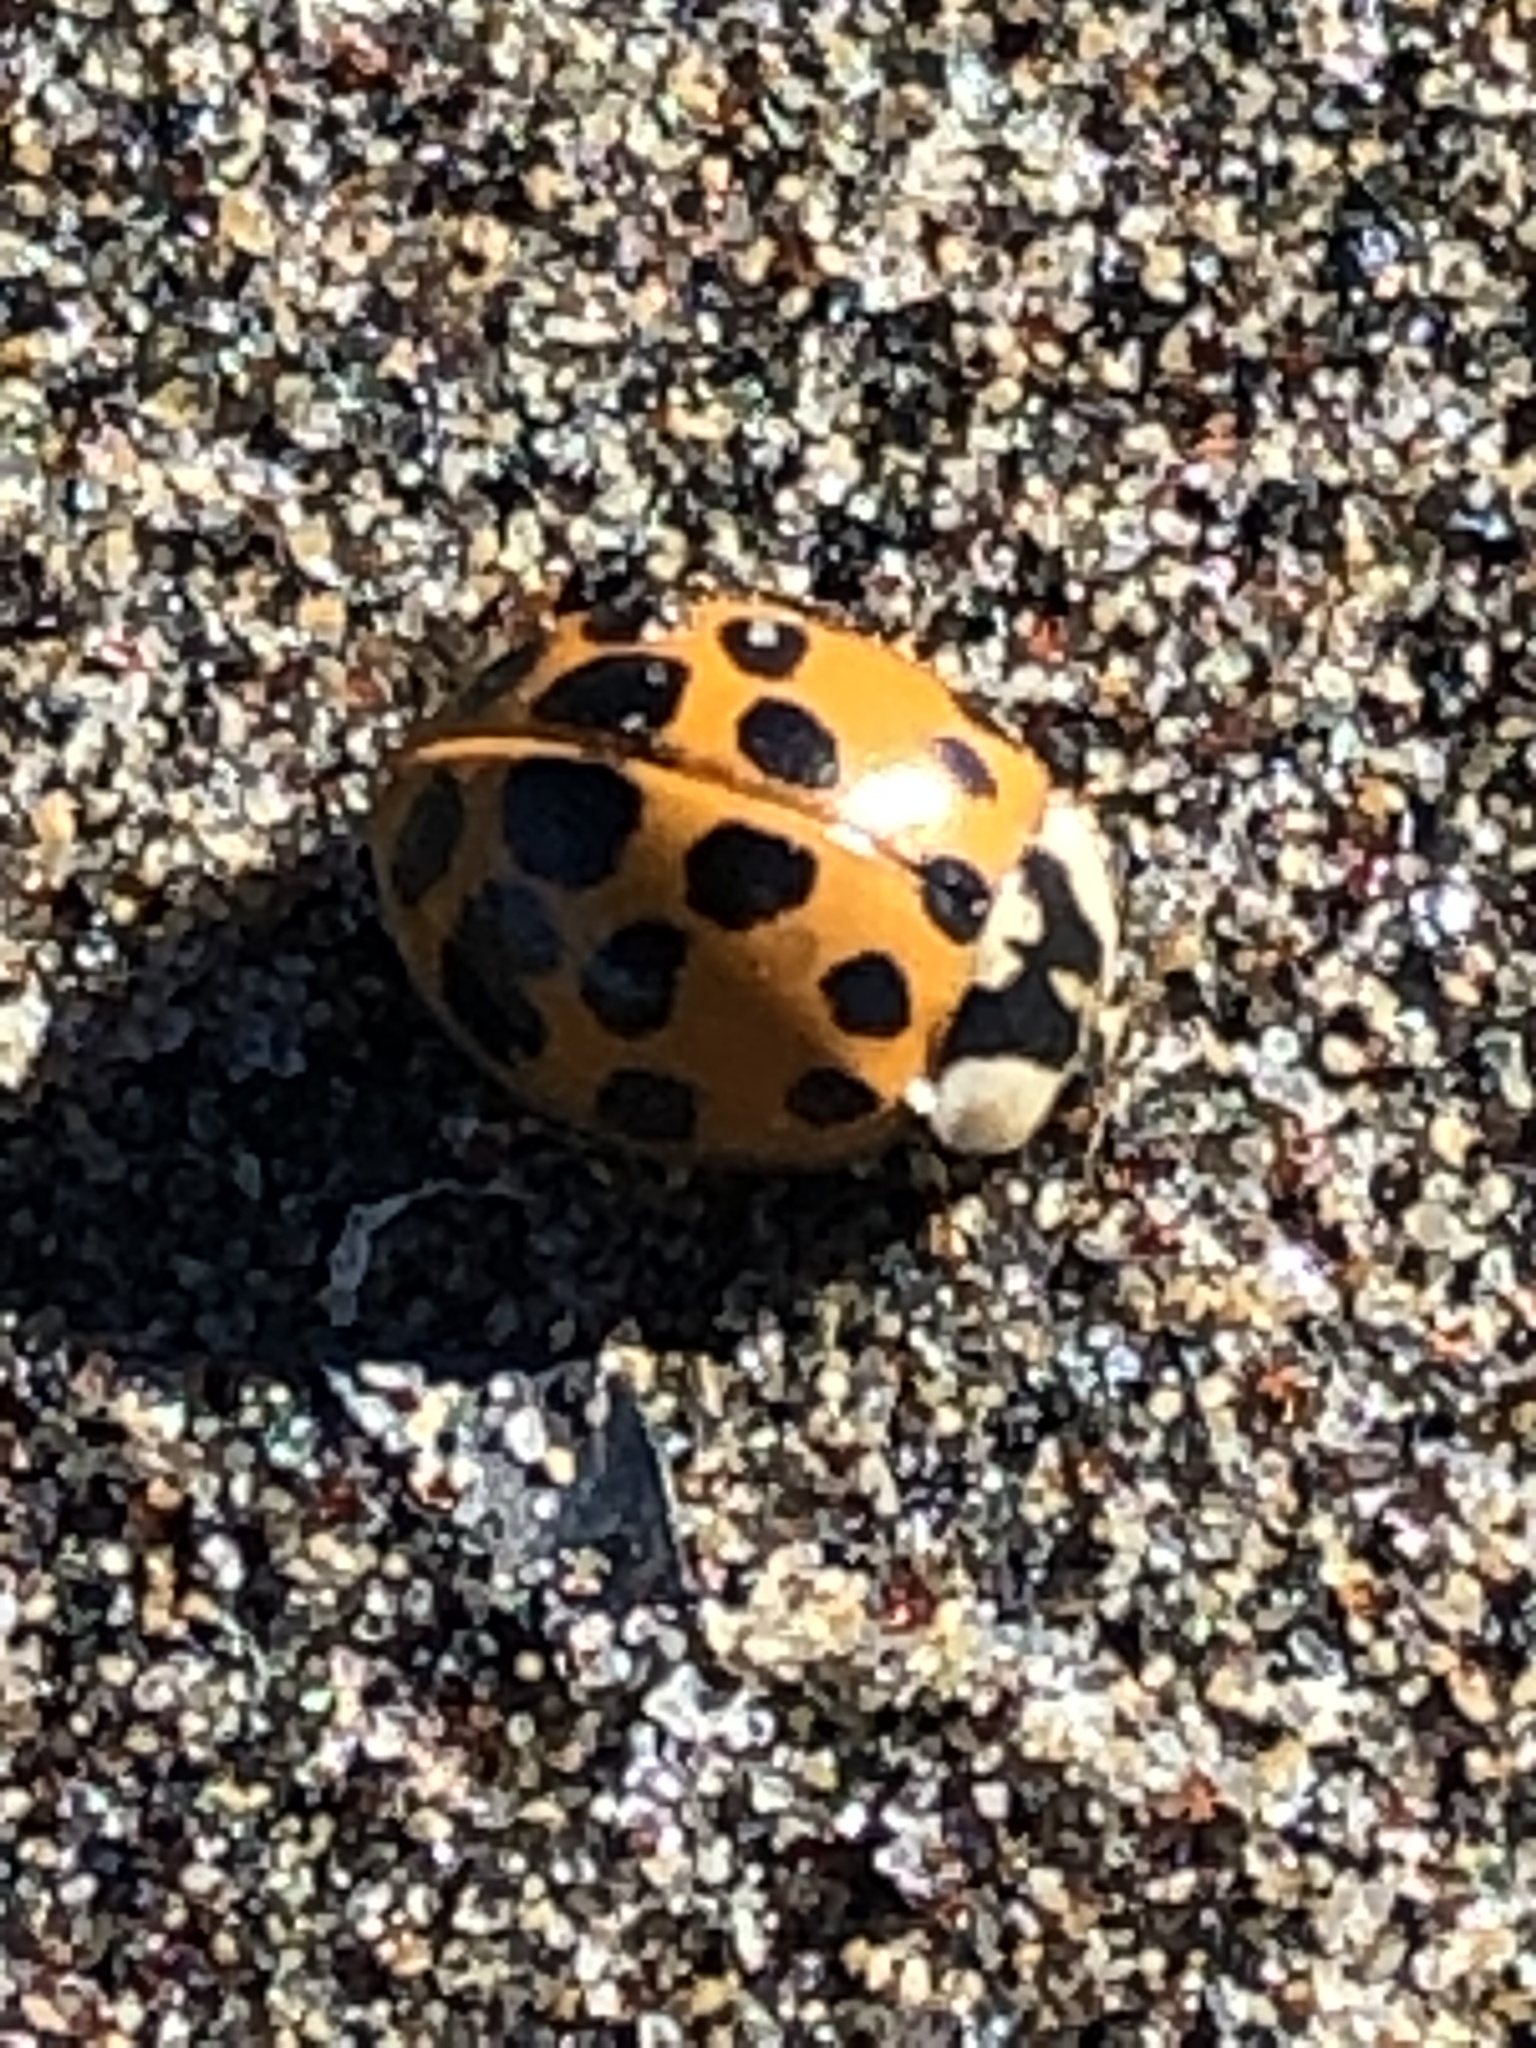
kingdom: Animalia
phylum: Arthropoda
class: Insecta
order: Coleoptera
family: Coccinellidae
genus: Harmonia
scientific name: Harmonia axyridis
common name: Harlequin ladybird
